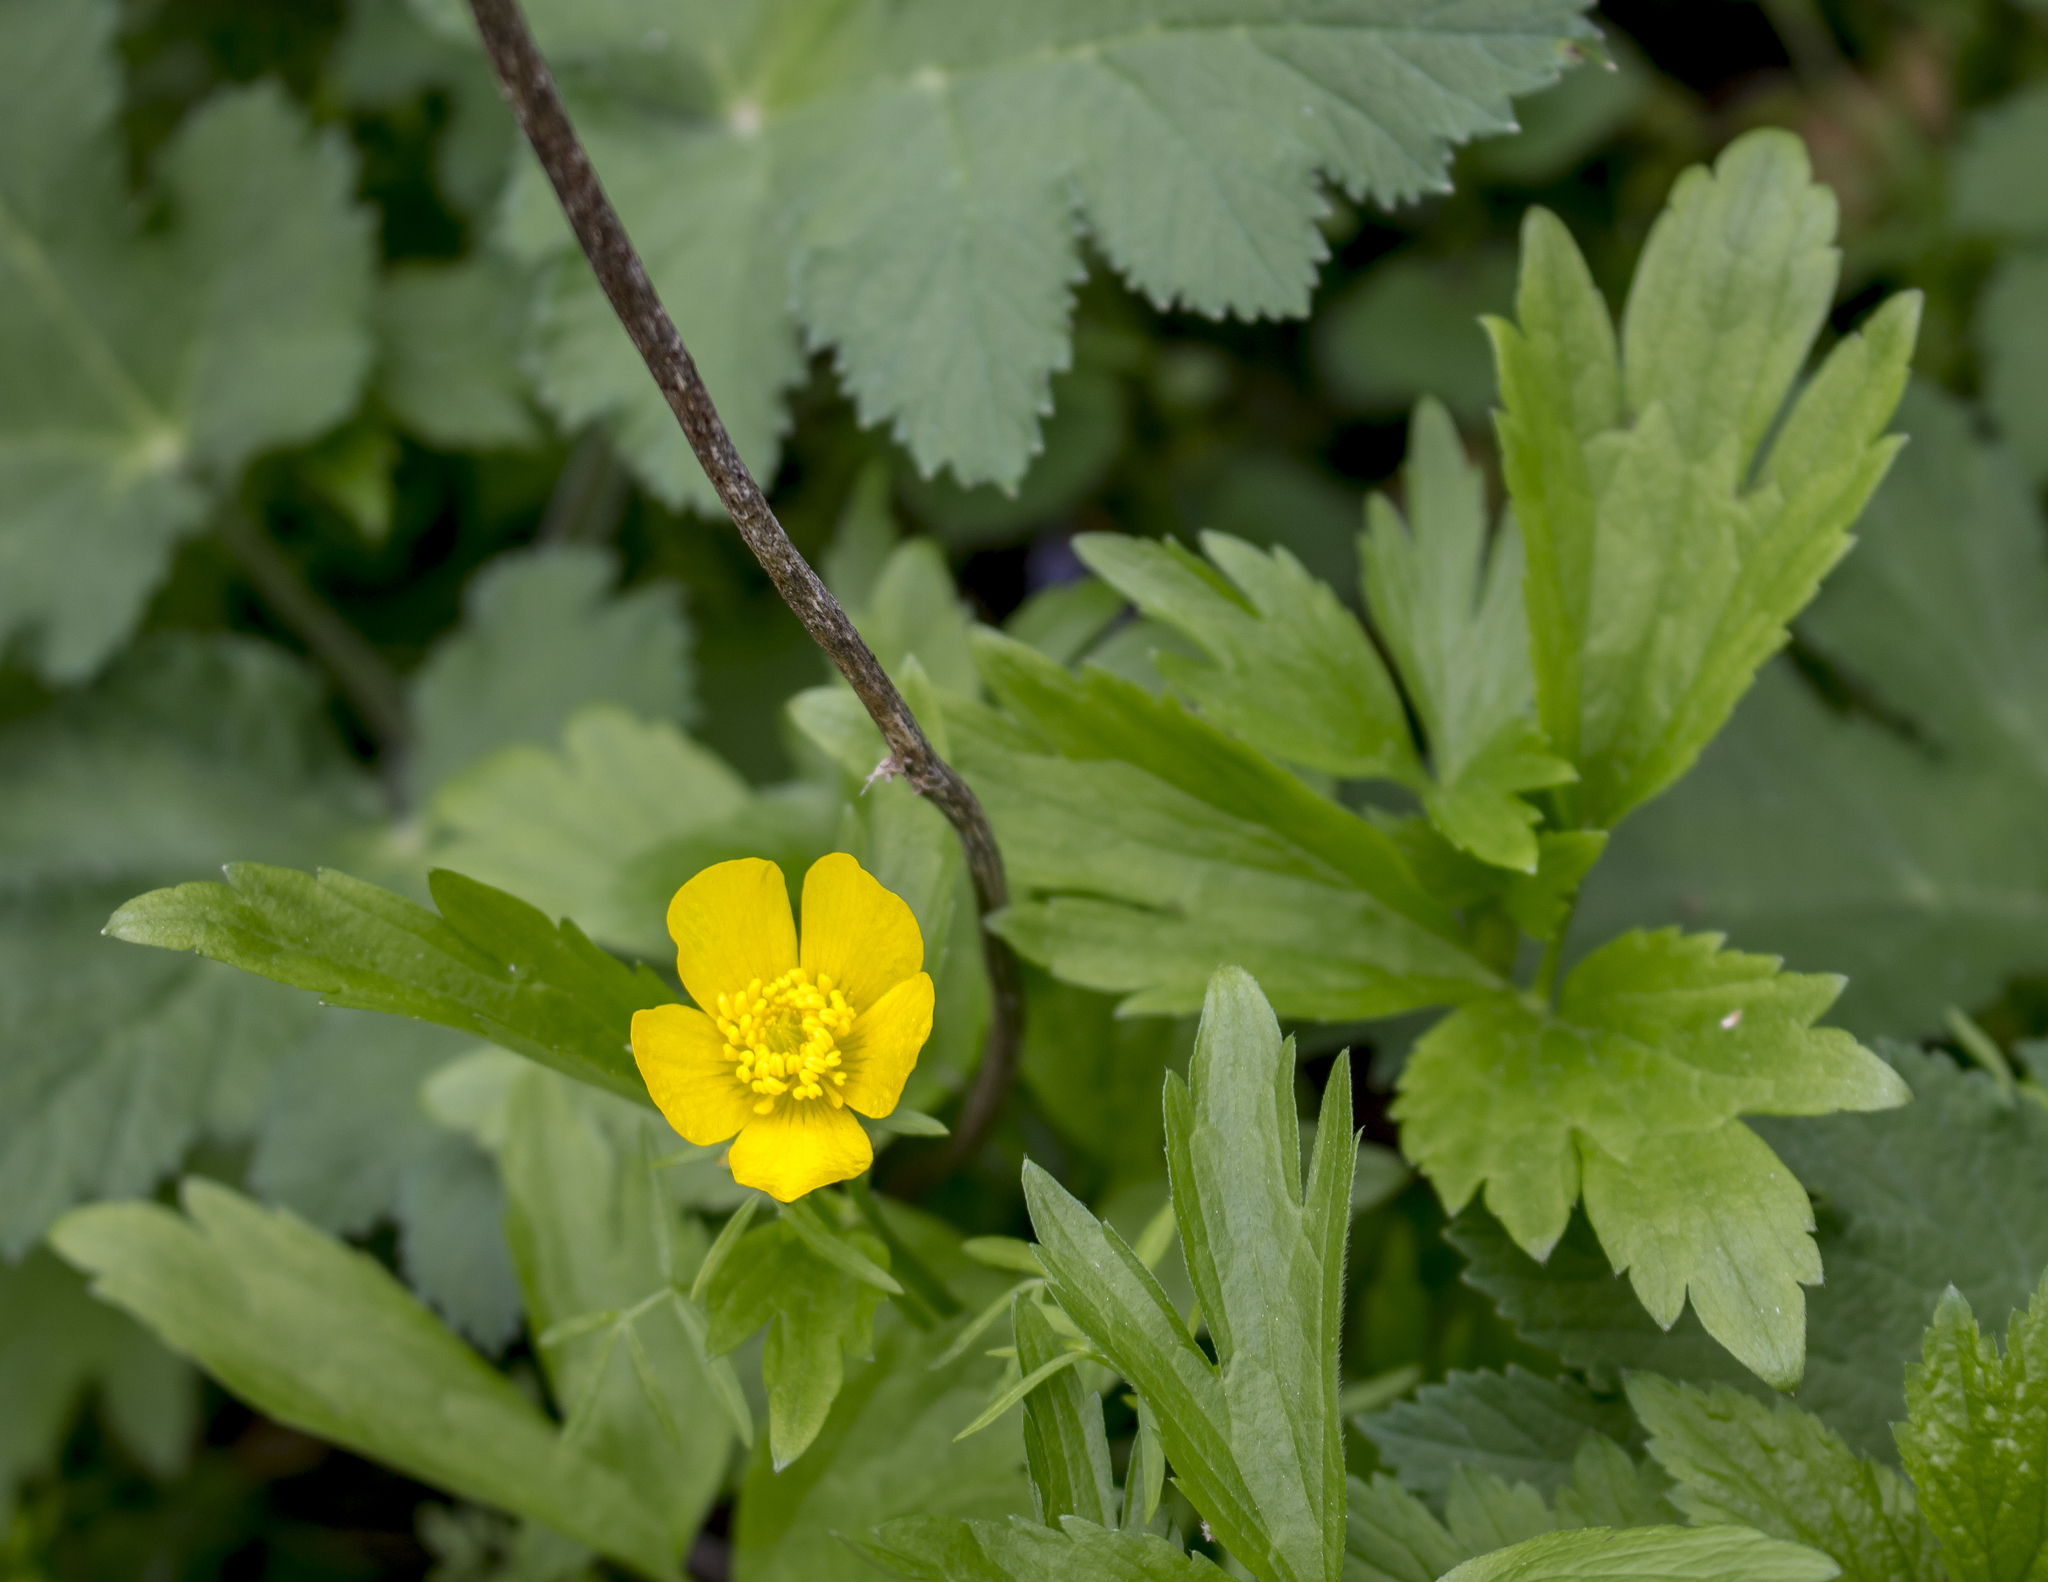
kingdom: Plantae
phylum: Tracheophyta
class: Magnoliopsida
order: Ranunculales
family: Ranunculaceae
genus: Ranunculus
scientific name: Ranunculus hispidus
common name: Bristly buttercup
